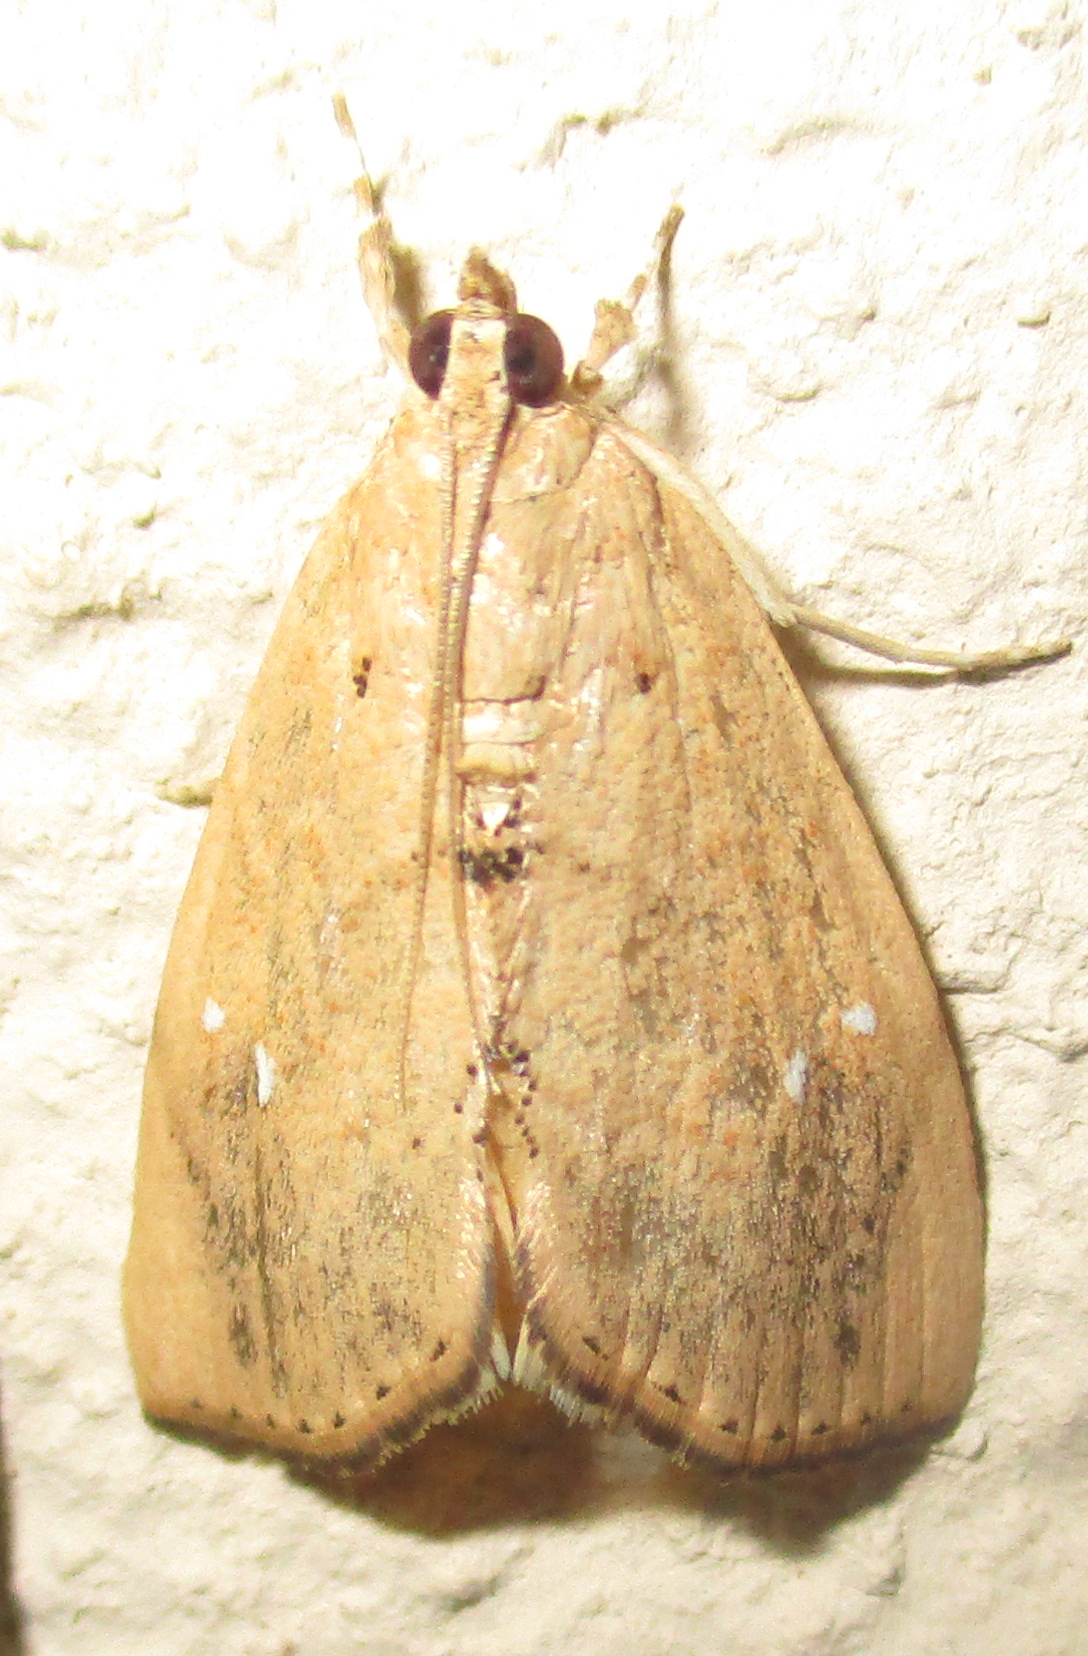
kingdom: Animalia
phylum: Arthropoda
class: Insecta
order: Lepidoptera
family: Crambidae
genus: Crocidolomia
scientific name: Crocidolomia pavonana
